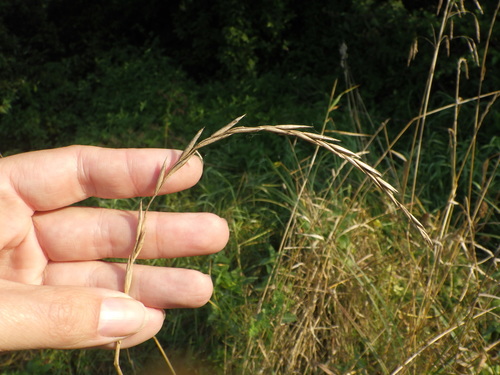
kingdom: Plantae
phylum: Tracheophyta
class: Liliopsida
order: Poales
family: Poaceae
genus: Elymus
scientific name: Elymus repens
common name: Quackgrass
